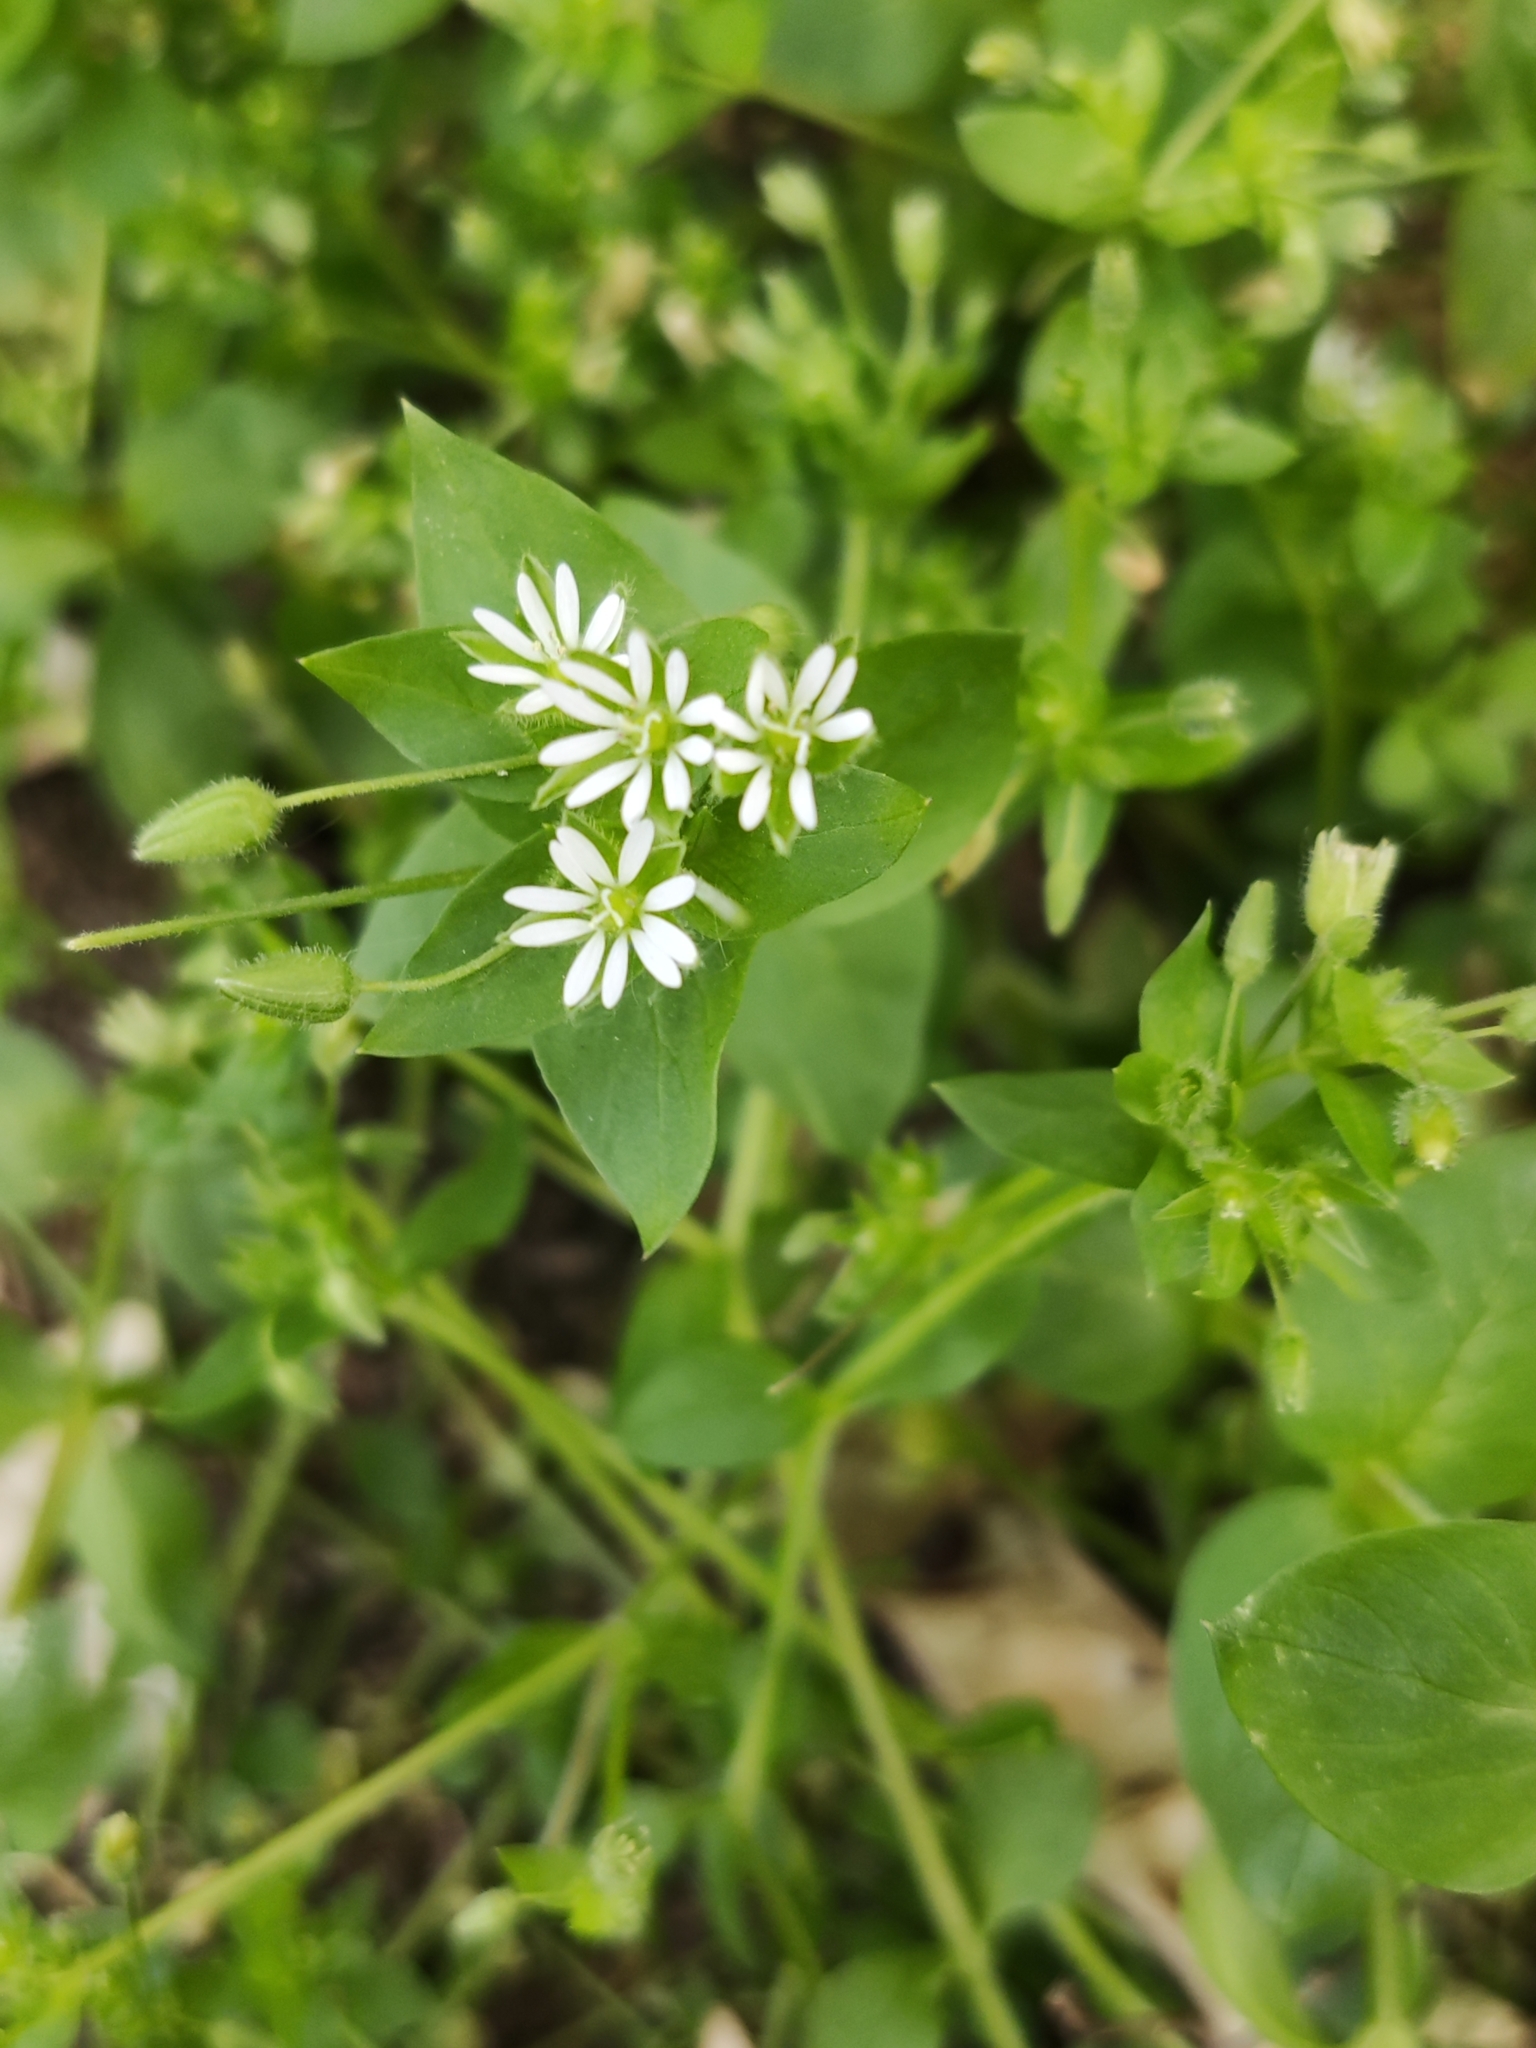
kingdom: Plantae
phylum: Tracheophyta
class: Magnoliopsida
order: Caryophyllales
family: Caryophyllaceae
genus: Stellaria
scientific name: Stellaria media
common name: Common chickweed
